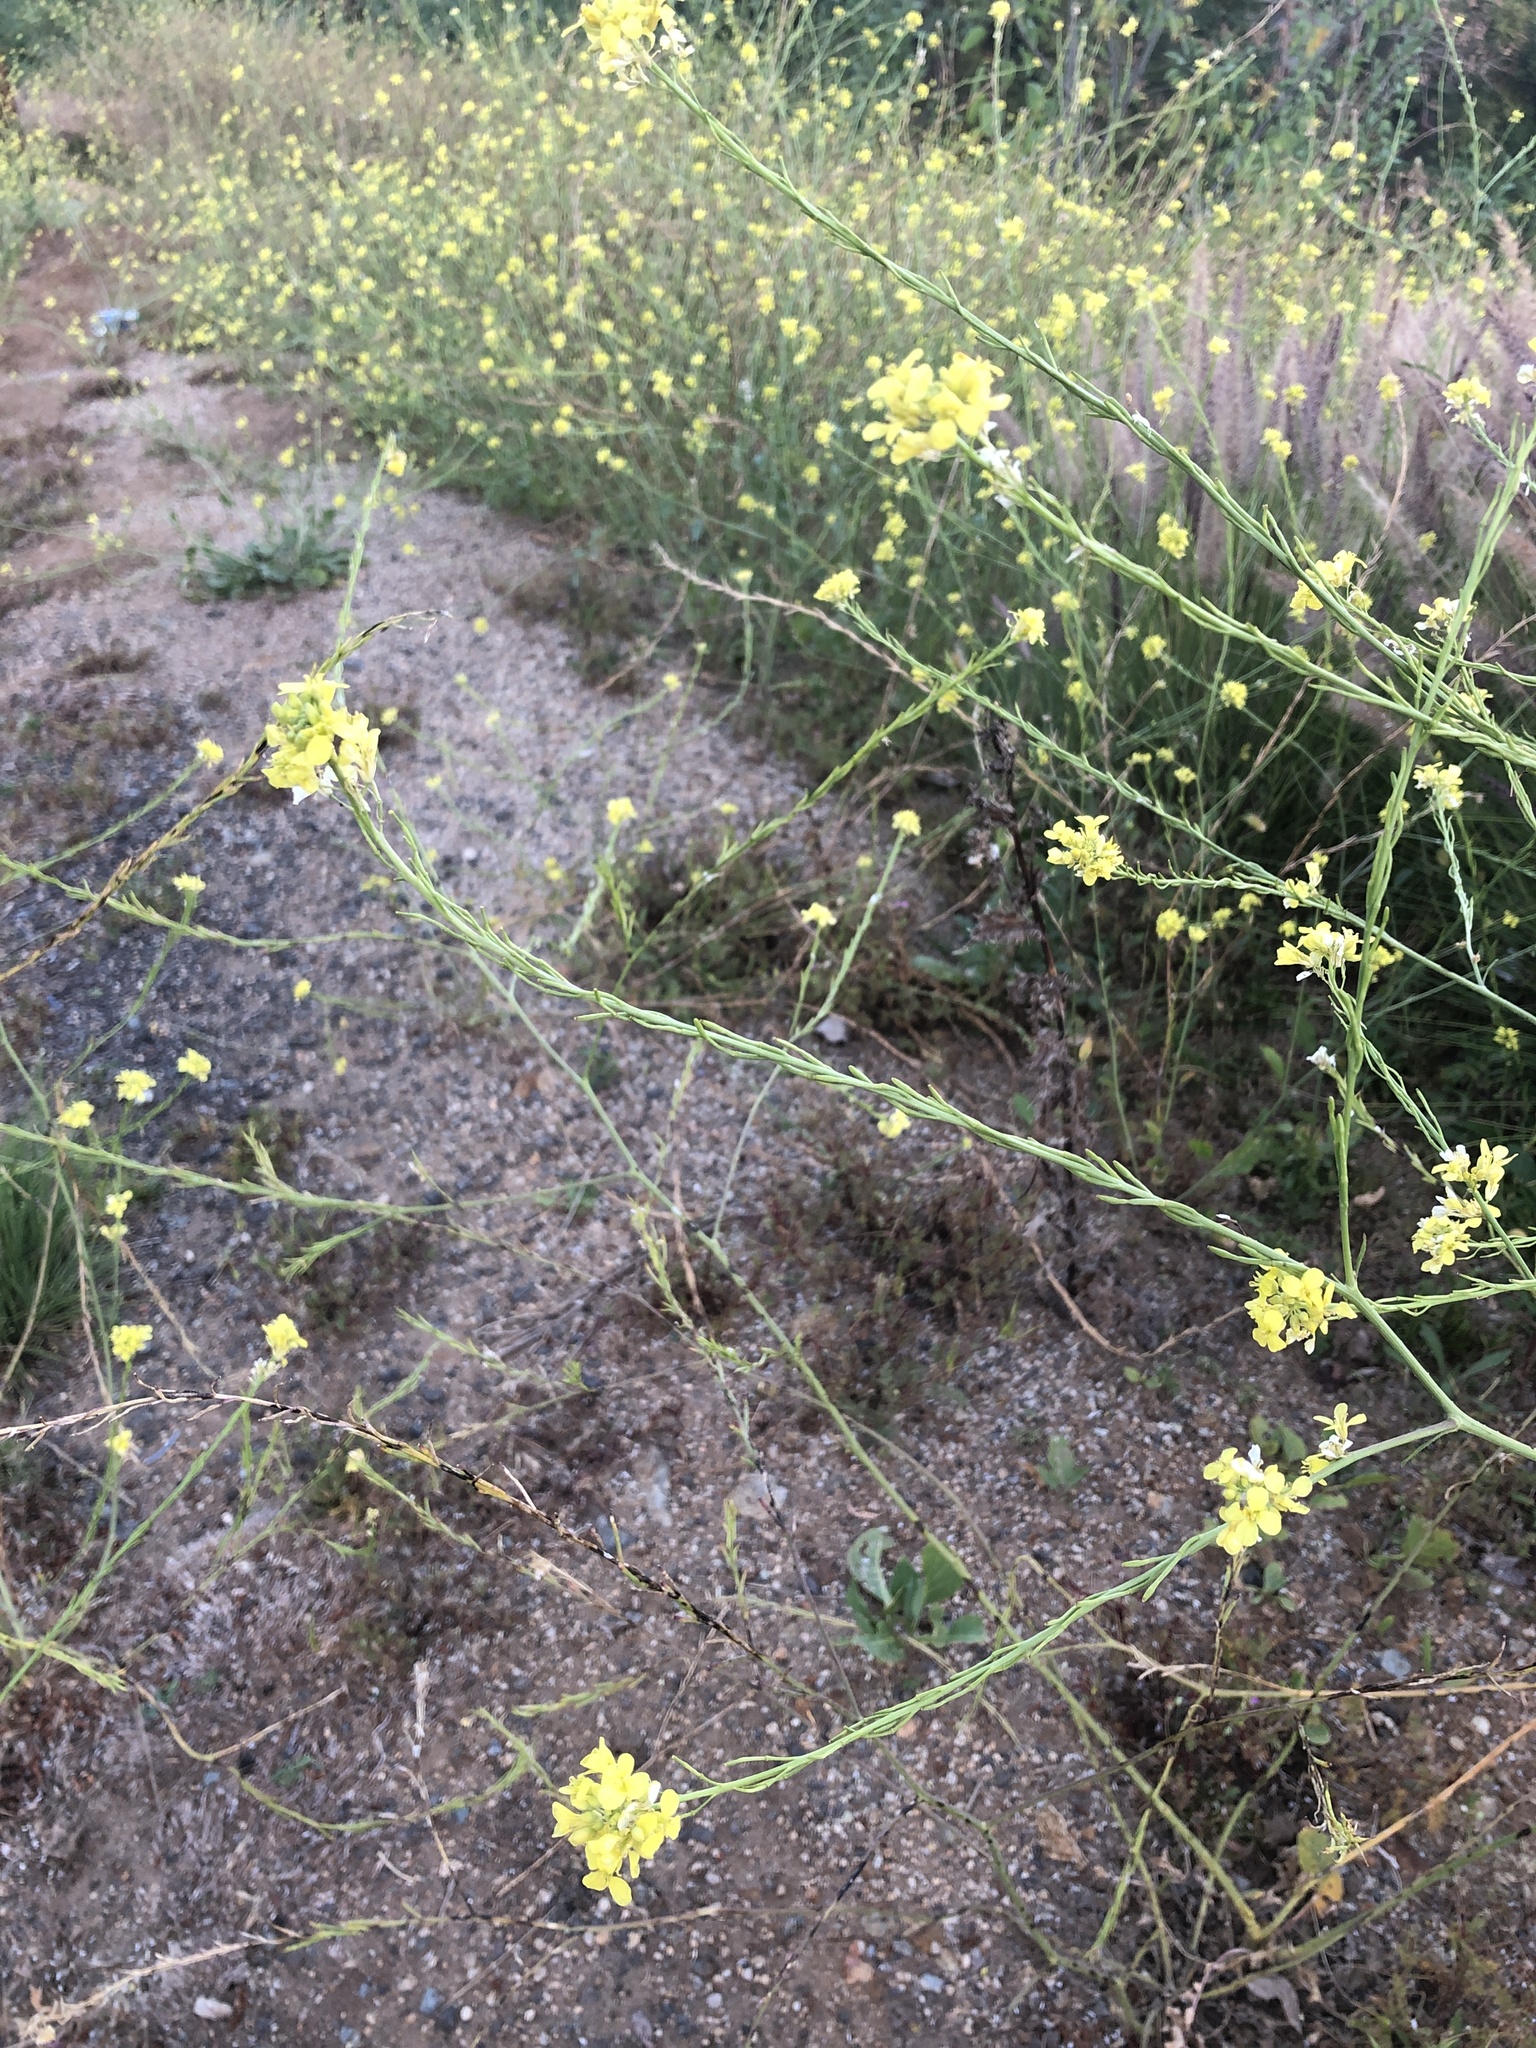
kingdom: Plantae
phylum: Tracheophyta
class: Magnoliopsida
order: Brassicales
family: Brassicaceae
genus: Hirschfeldia
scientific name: Hirschfeldia incana
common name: Hoary mustard
